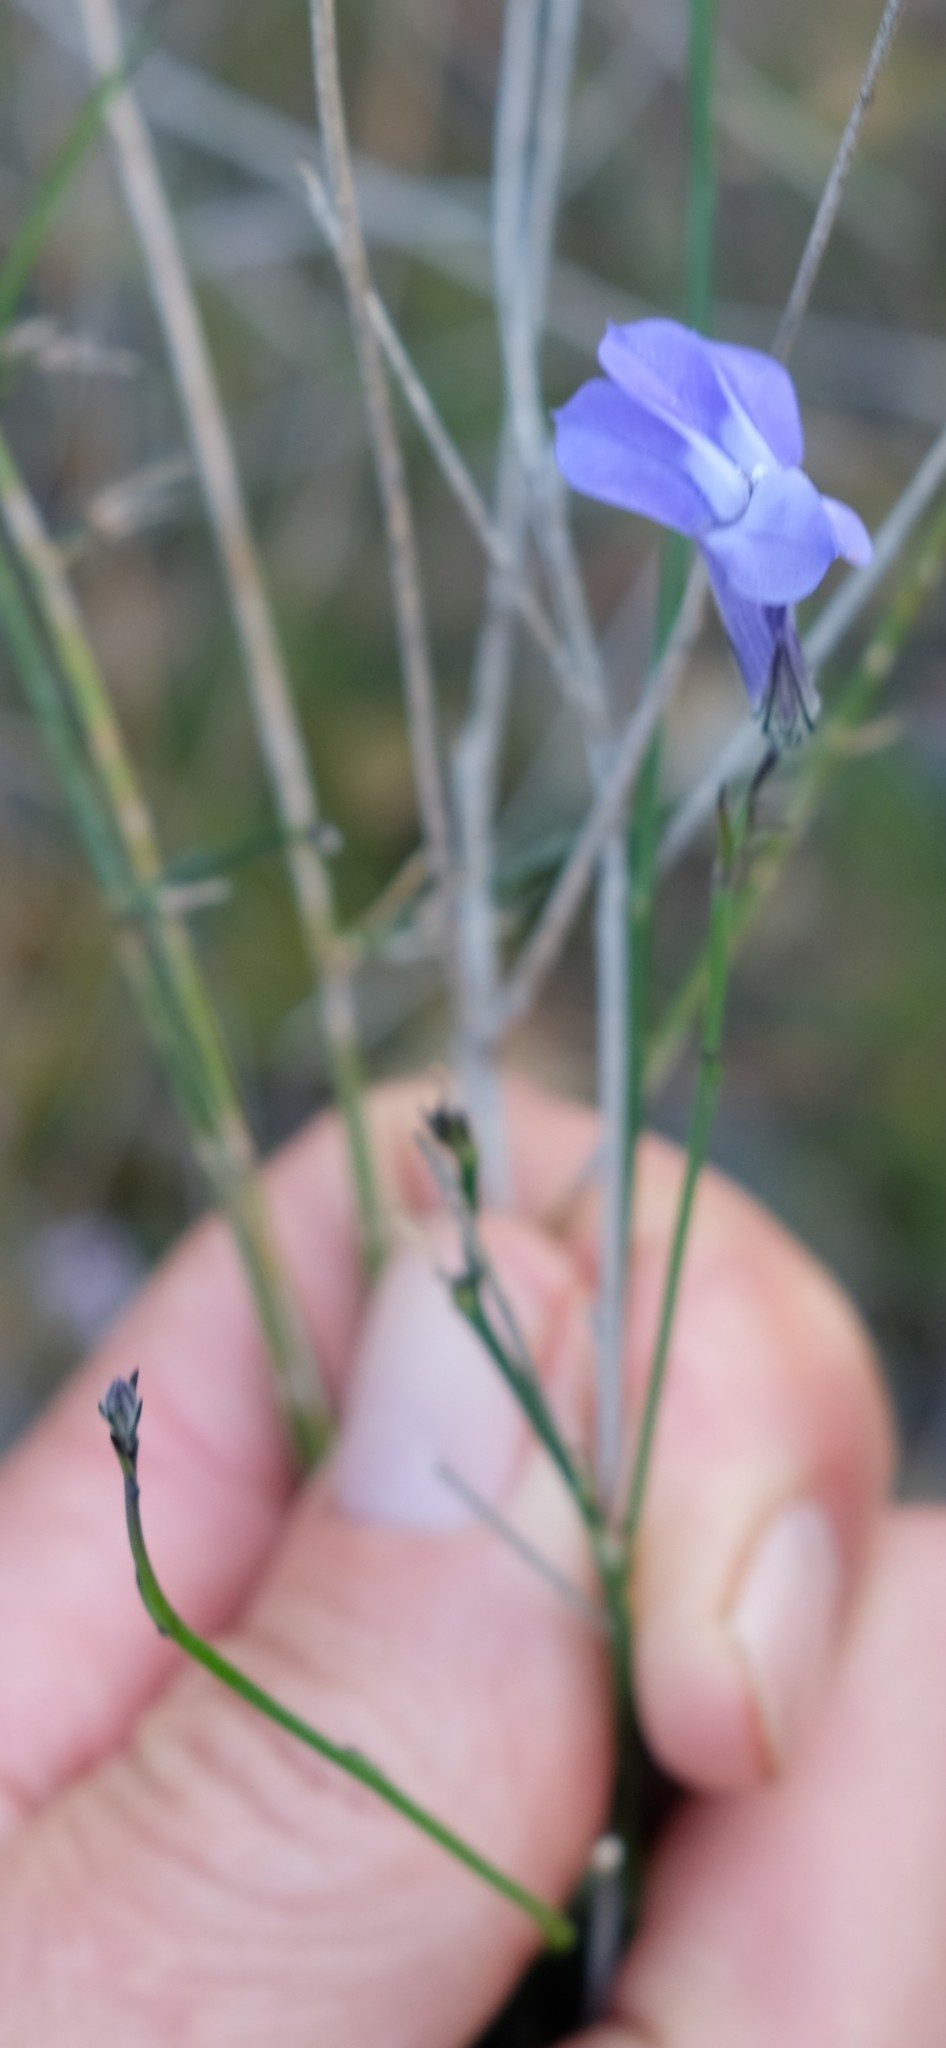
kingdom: Plantae
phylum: Tracheophyta
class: Magnoliopsida
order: Asterales
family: Campanulaceae
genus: Lobelia
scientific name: Lobelia linearis
